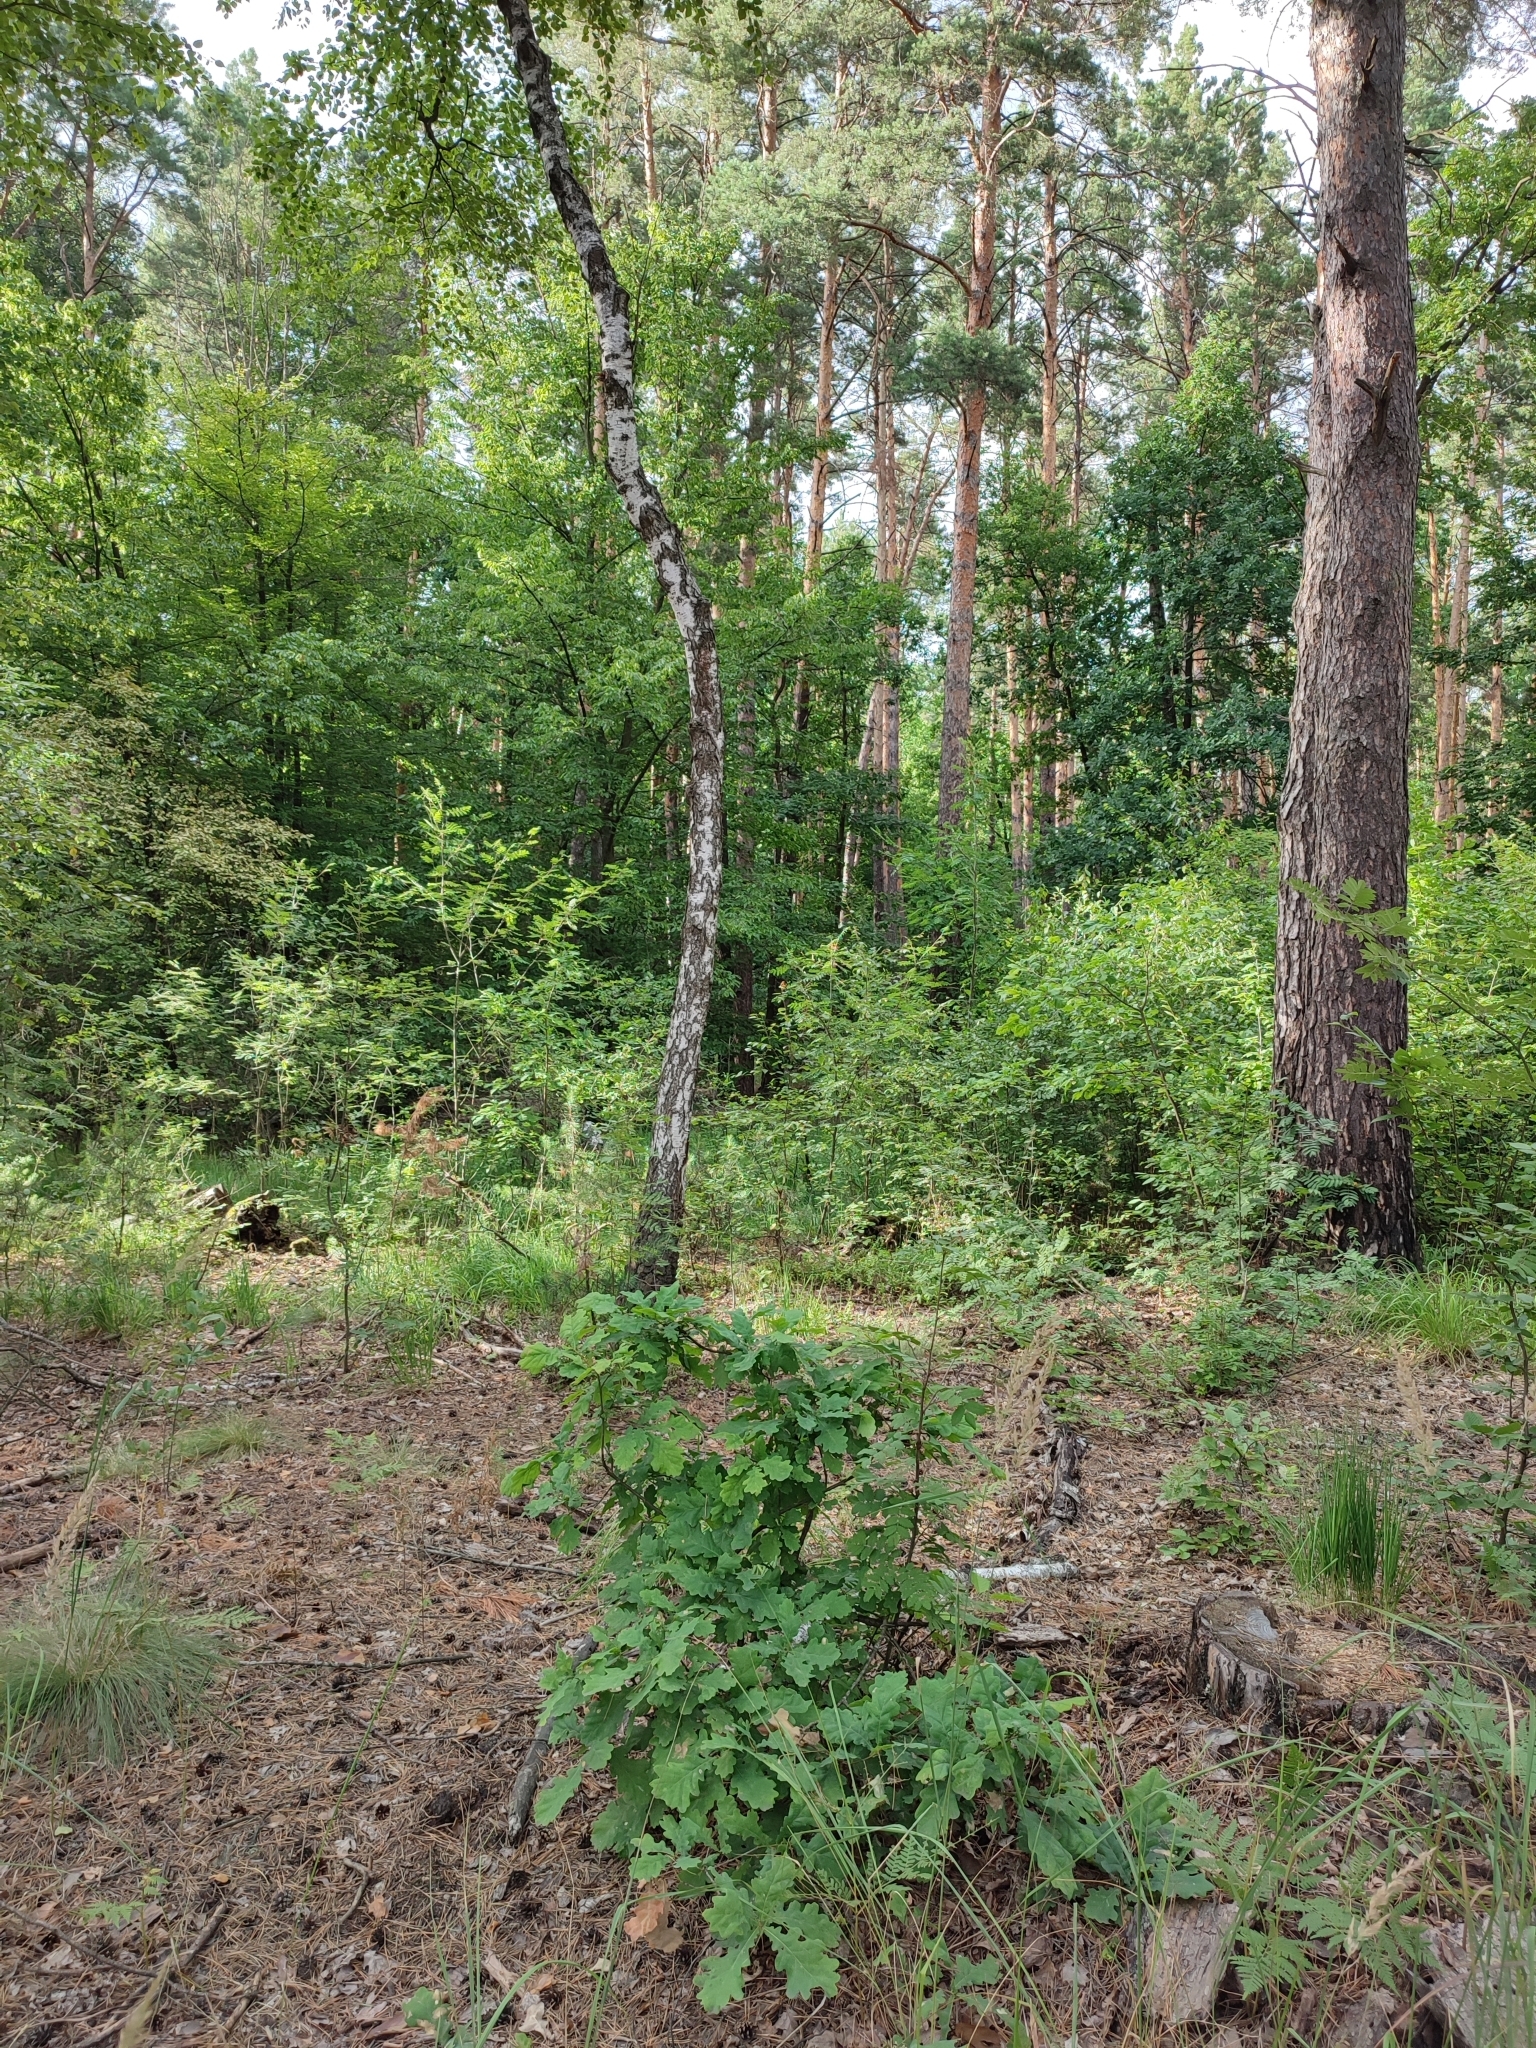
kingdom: Plantae
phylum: Tracheophyta
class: Magnoliopsida
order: Fagales
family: Fagaceae
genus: Quercus
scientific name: Quercus robur
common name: Pedunculate oak
